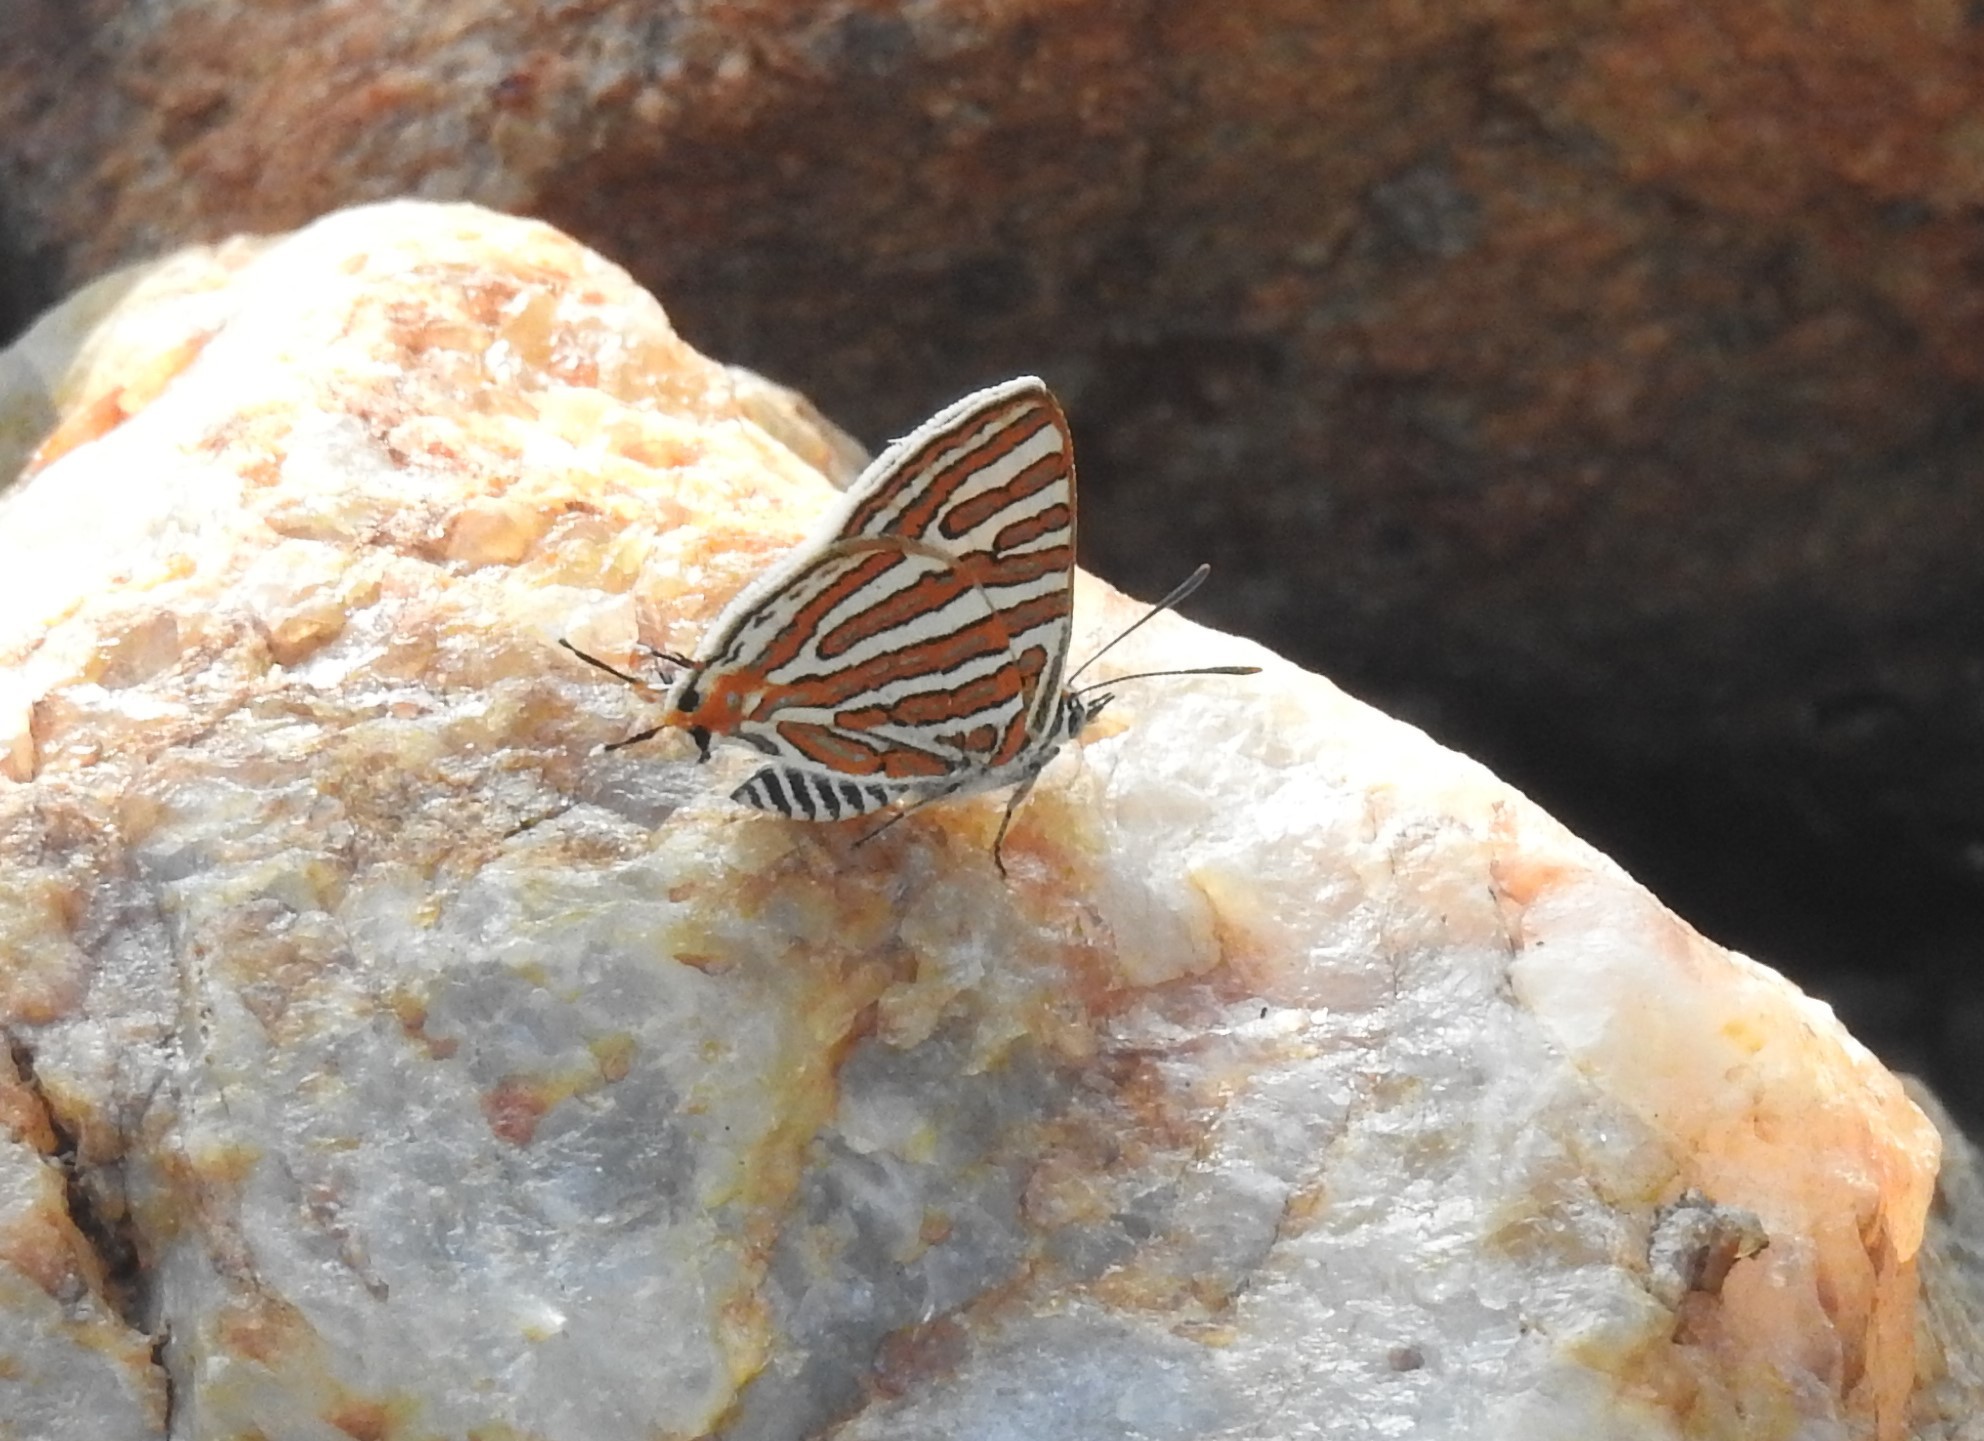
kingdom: Animalia
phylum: Arthropoda
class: Insecta
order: Lepidoptera
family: Lycaenidae
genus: Cigaritis
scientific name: Cigaritis vulcanus
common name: Common silverline
